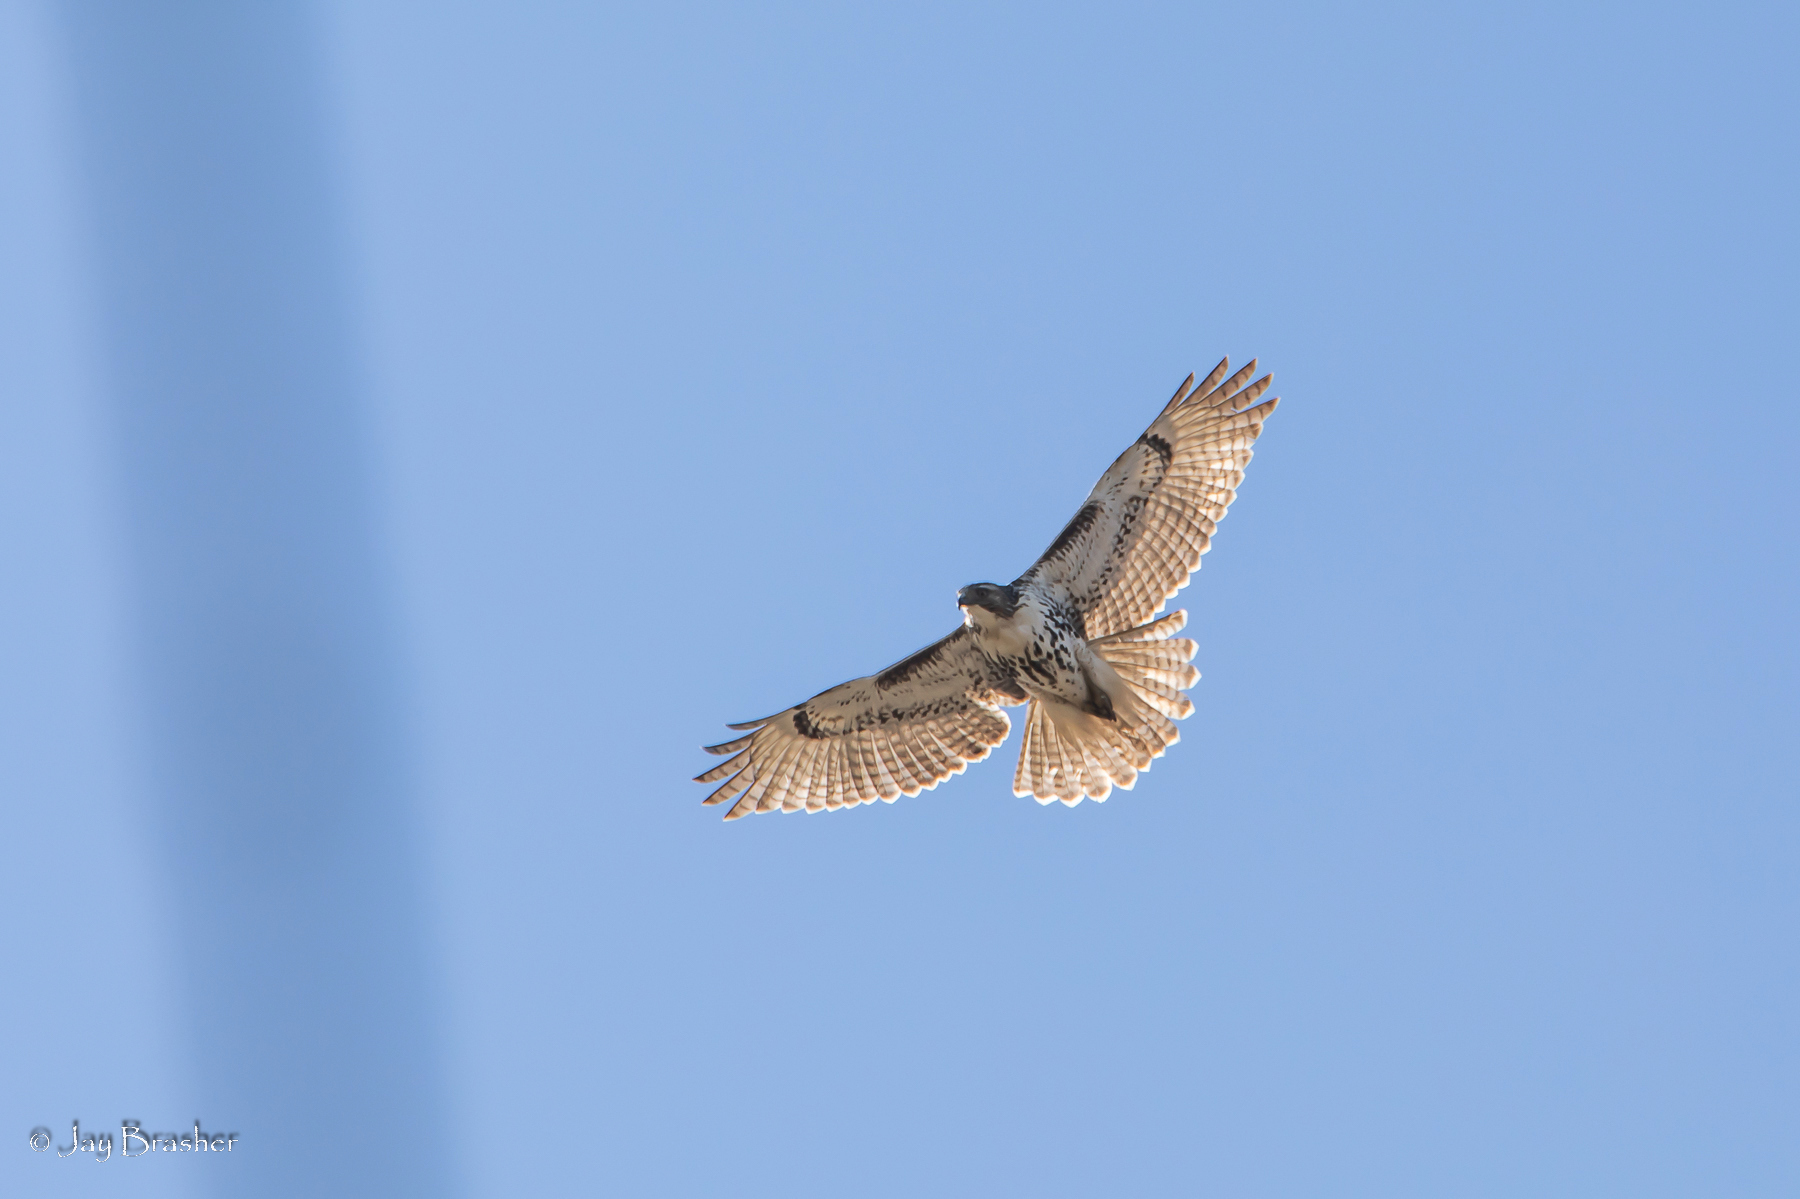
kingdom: Animalia
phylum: Chordata
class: Aves
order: Accipitriformes
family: Accipitridae
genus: Buteo
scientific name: Buteo jamaicensis
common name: Red-tailed hawk
